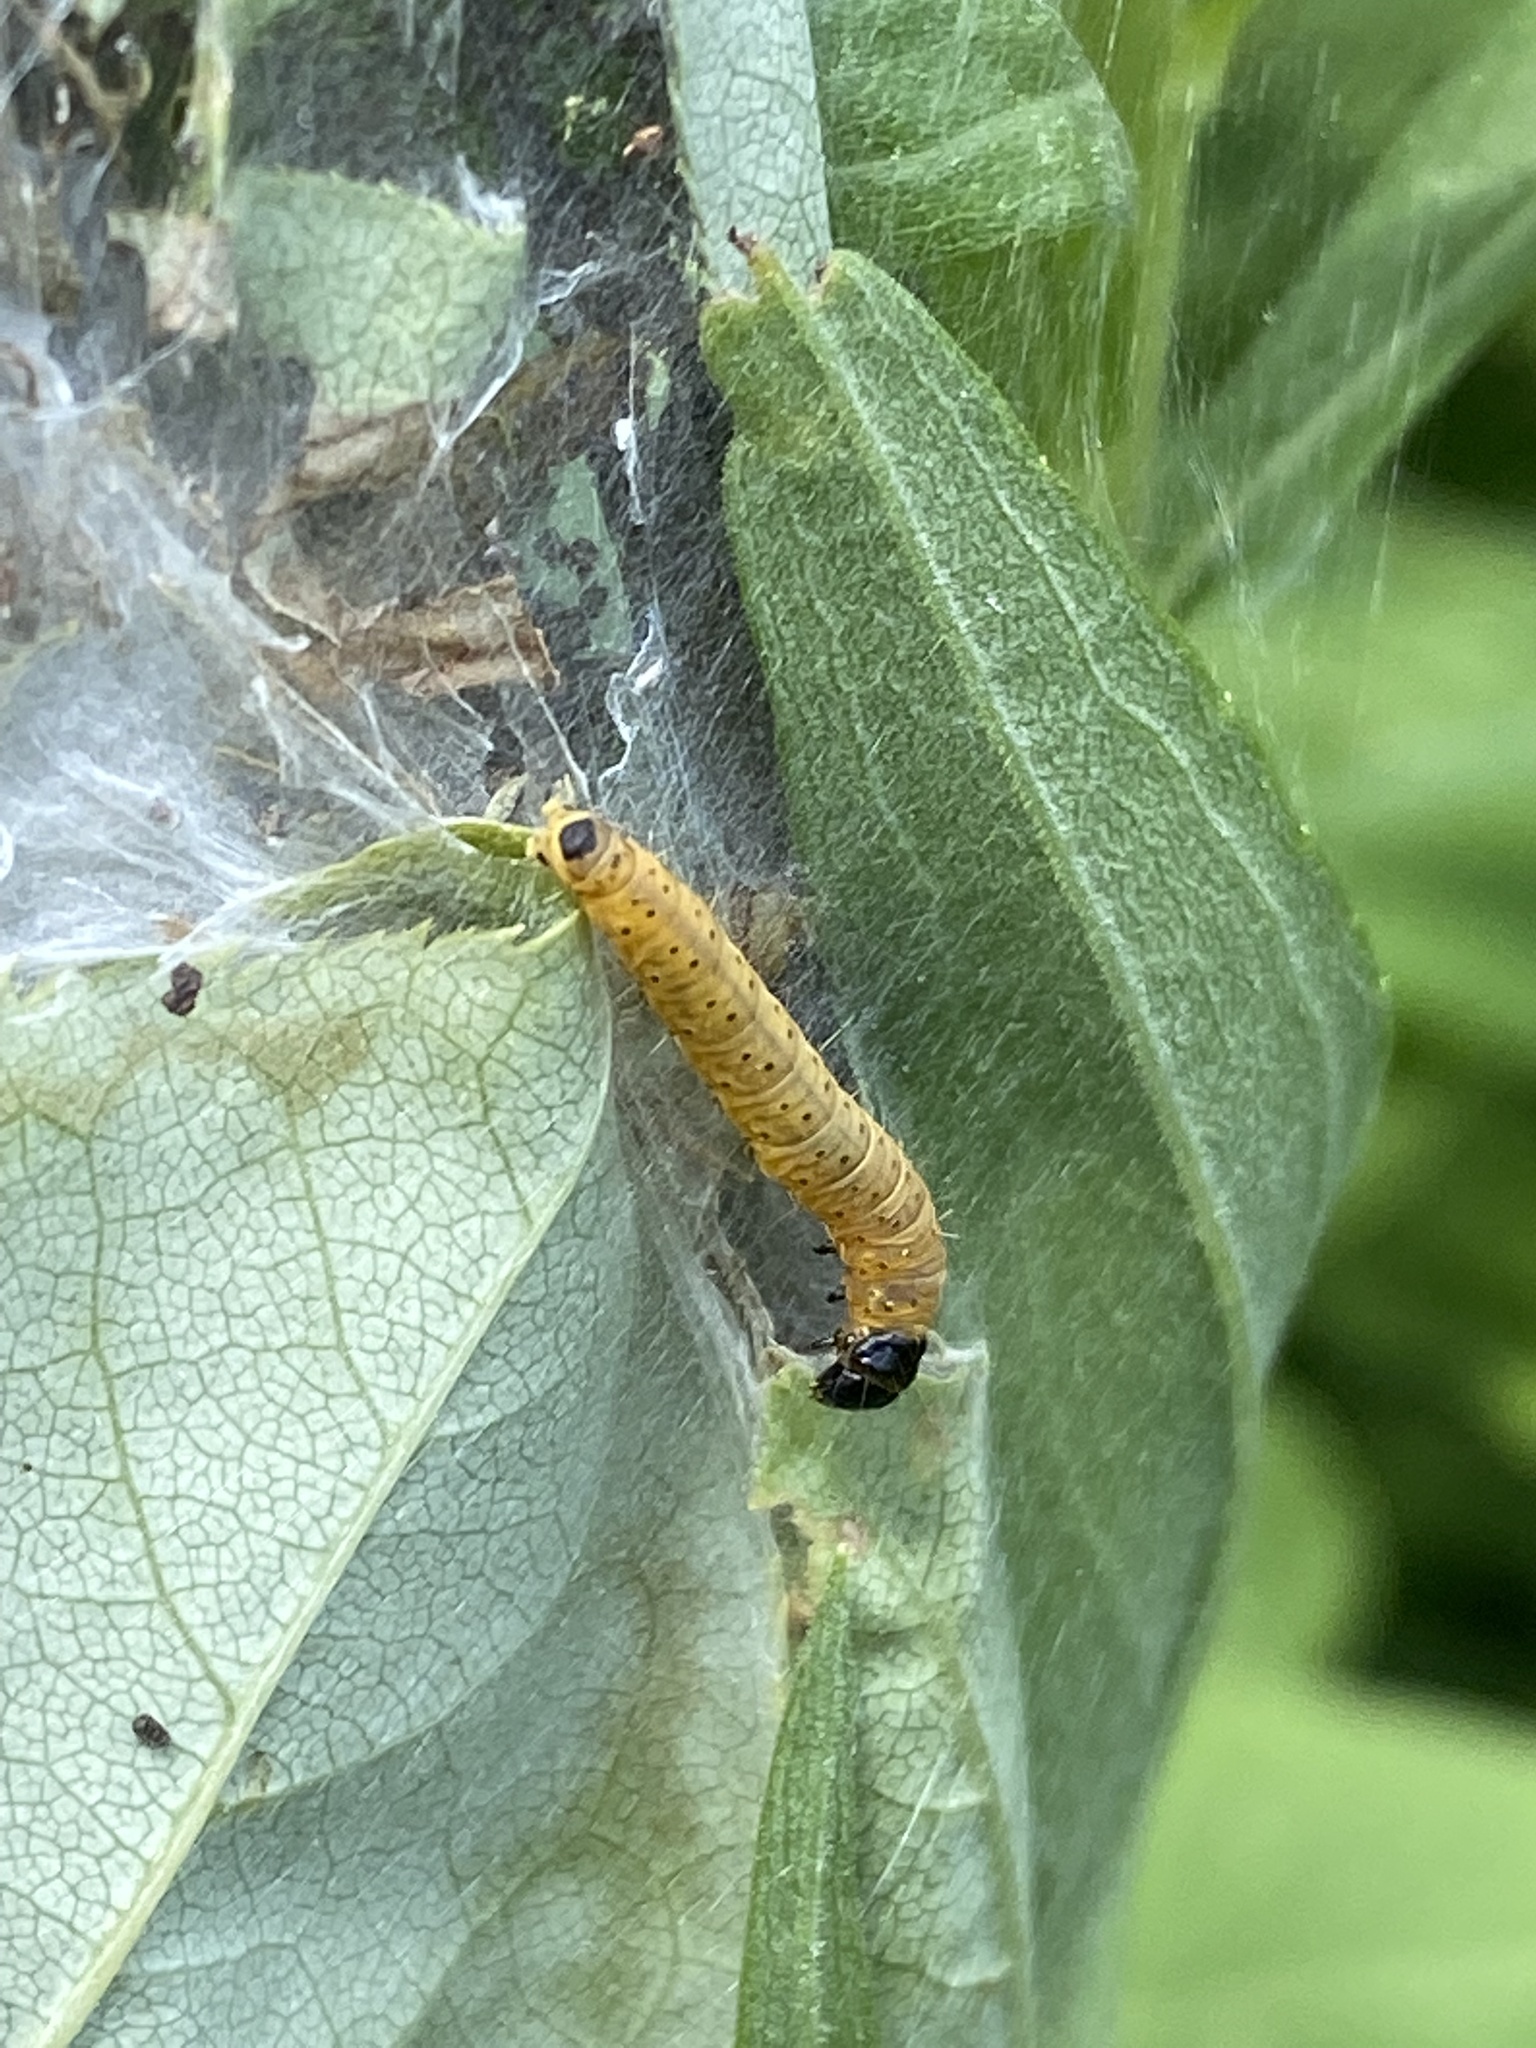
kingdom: Animalia
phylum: Arthropoda
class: Insecta
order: Lepidoptera
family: Tortricidae
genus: Archips
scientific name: Archips cerasivorana
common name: Uglynest caterpillar
